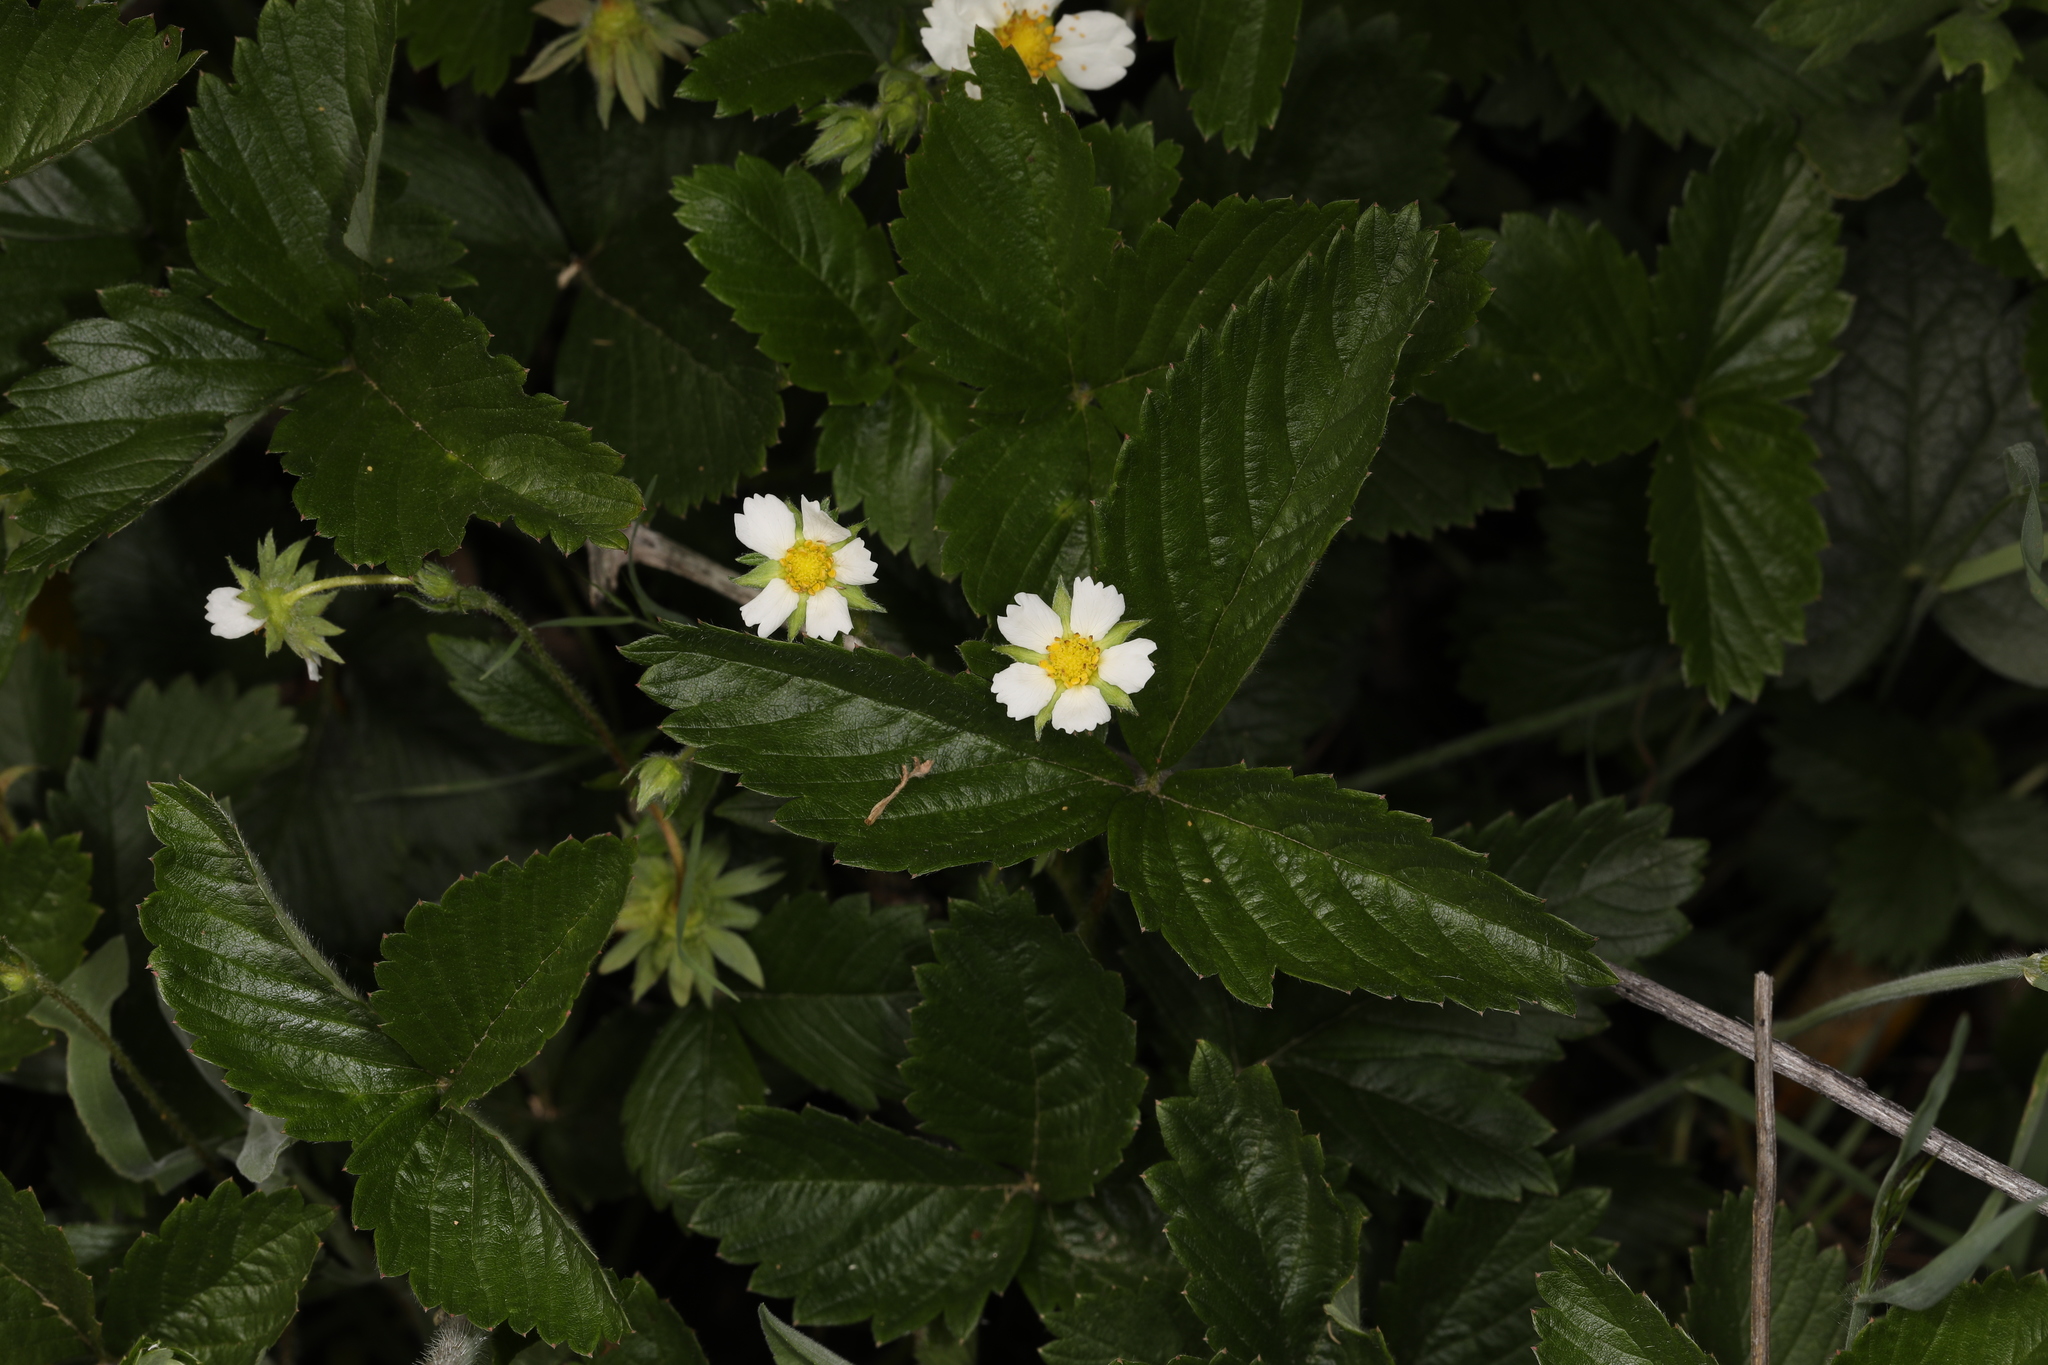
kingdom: Plantae
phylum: Tracheophyta
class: Magnoliopsida
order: Rosales
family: Rosaceae
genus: Fragaria
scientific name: Fragaria vesca
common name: Wild strawberry
